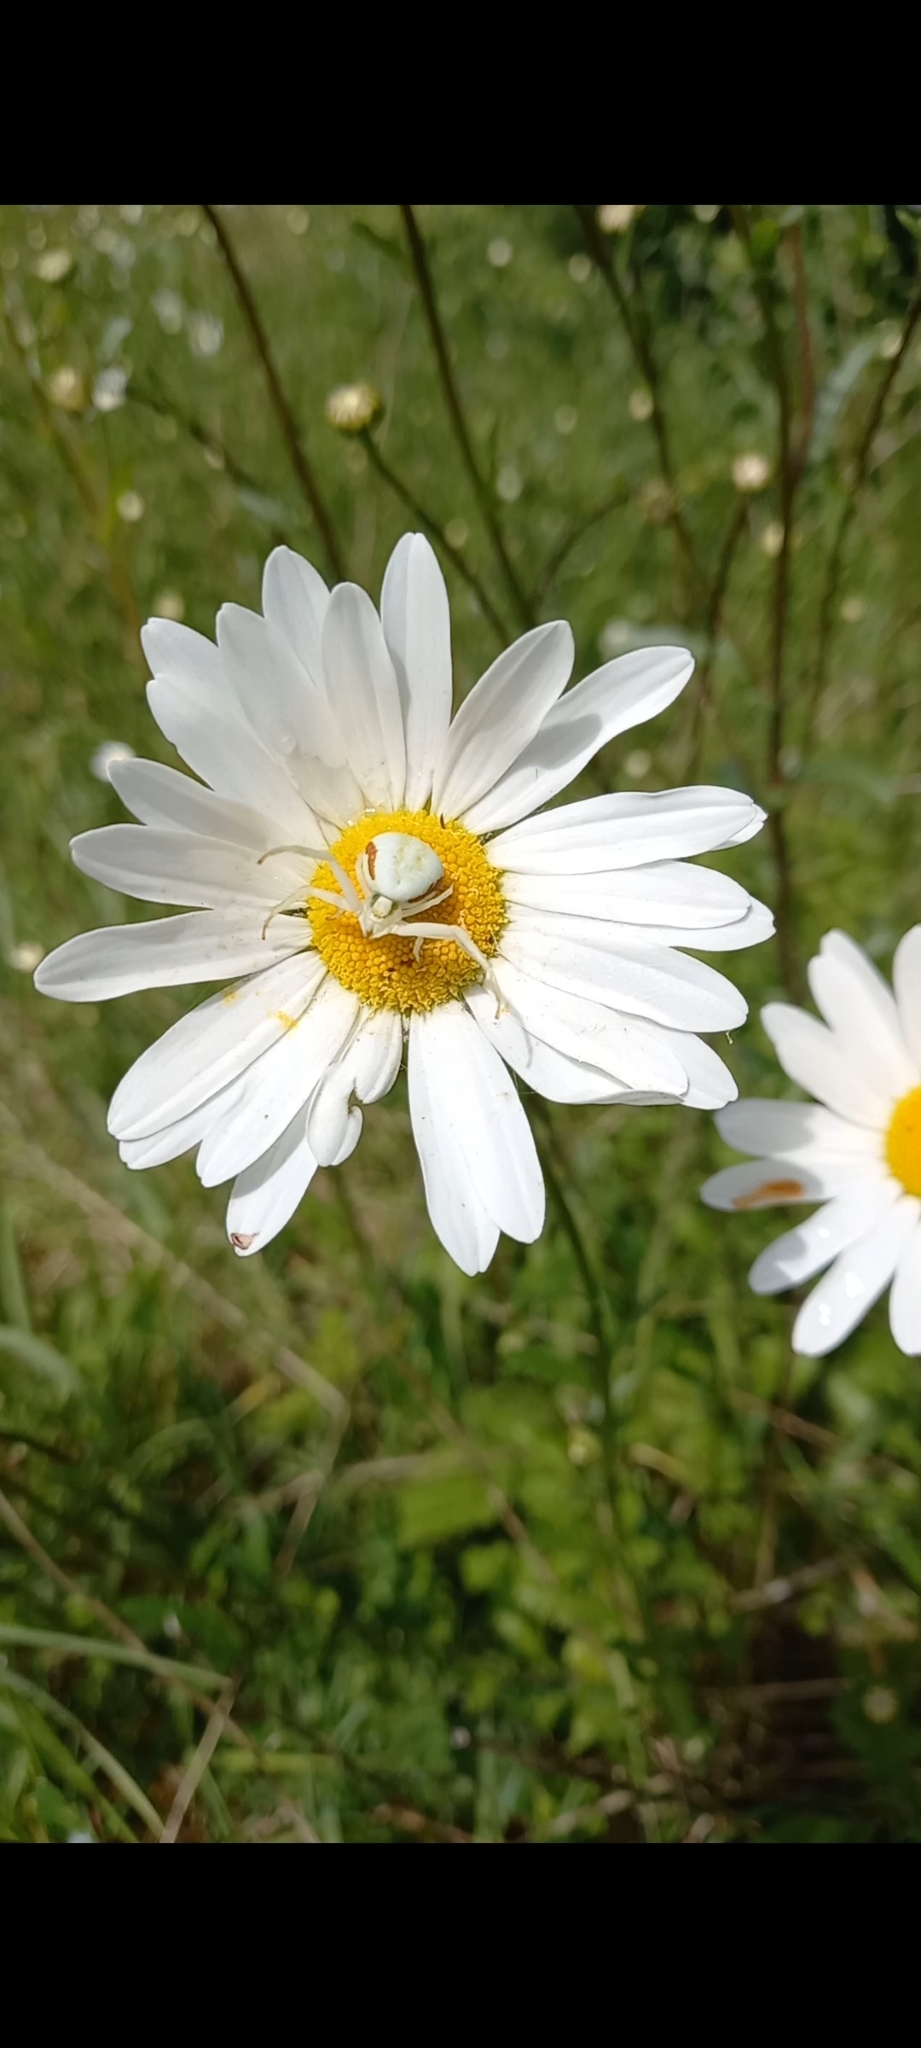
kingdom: Animalia
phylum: Arthropoda
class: Arachnida
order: Araneae
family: Thomisidae
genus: Misumena
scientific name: Misumena vatia
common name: Goldenrod crab spider
